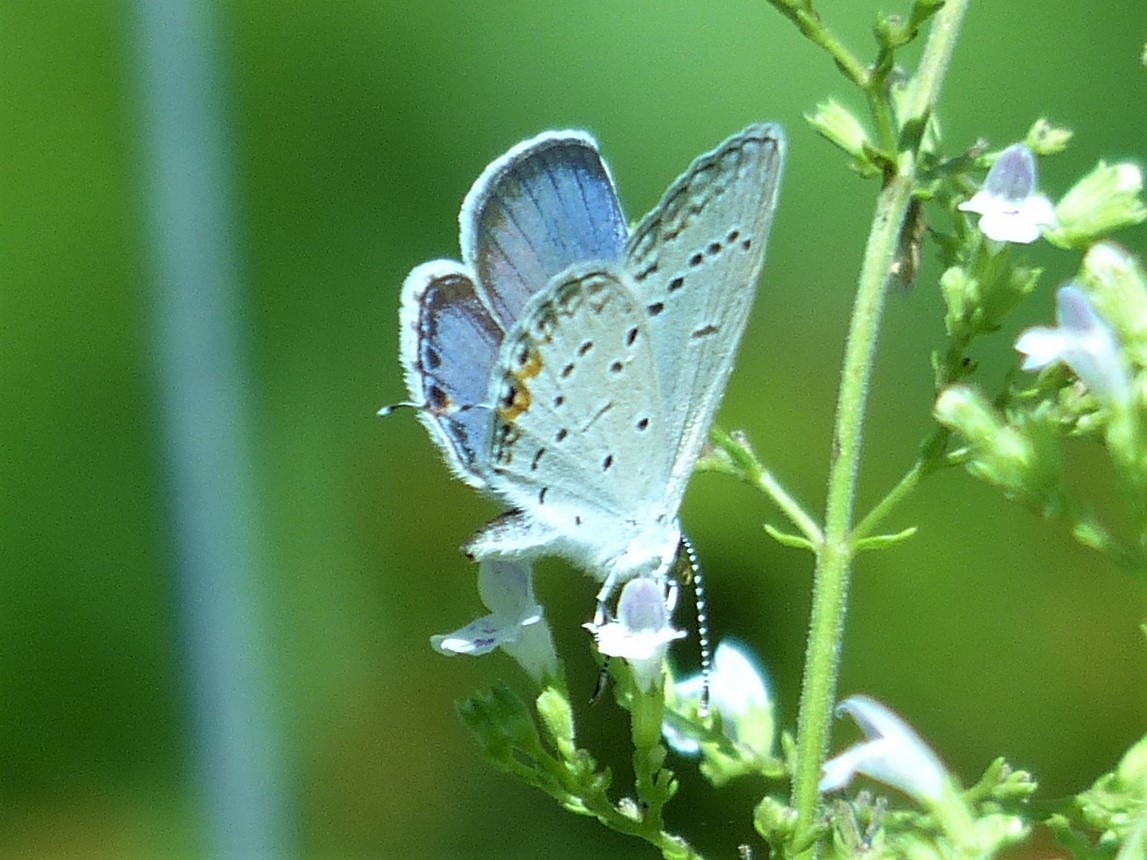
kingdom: Animalia
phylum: Arthropoda
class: Insecta
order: Lepidoptera
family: Lycaenidae
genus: Elkalyce
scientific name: Elkalyce comyntas
